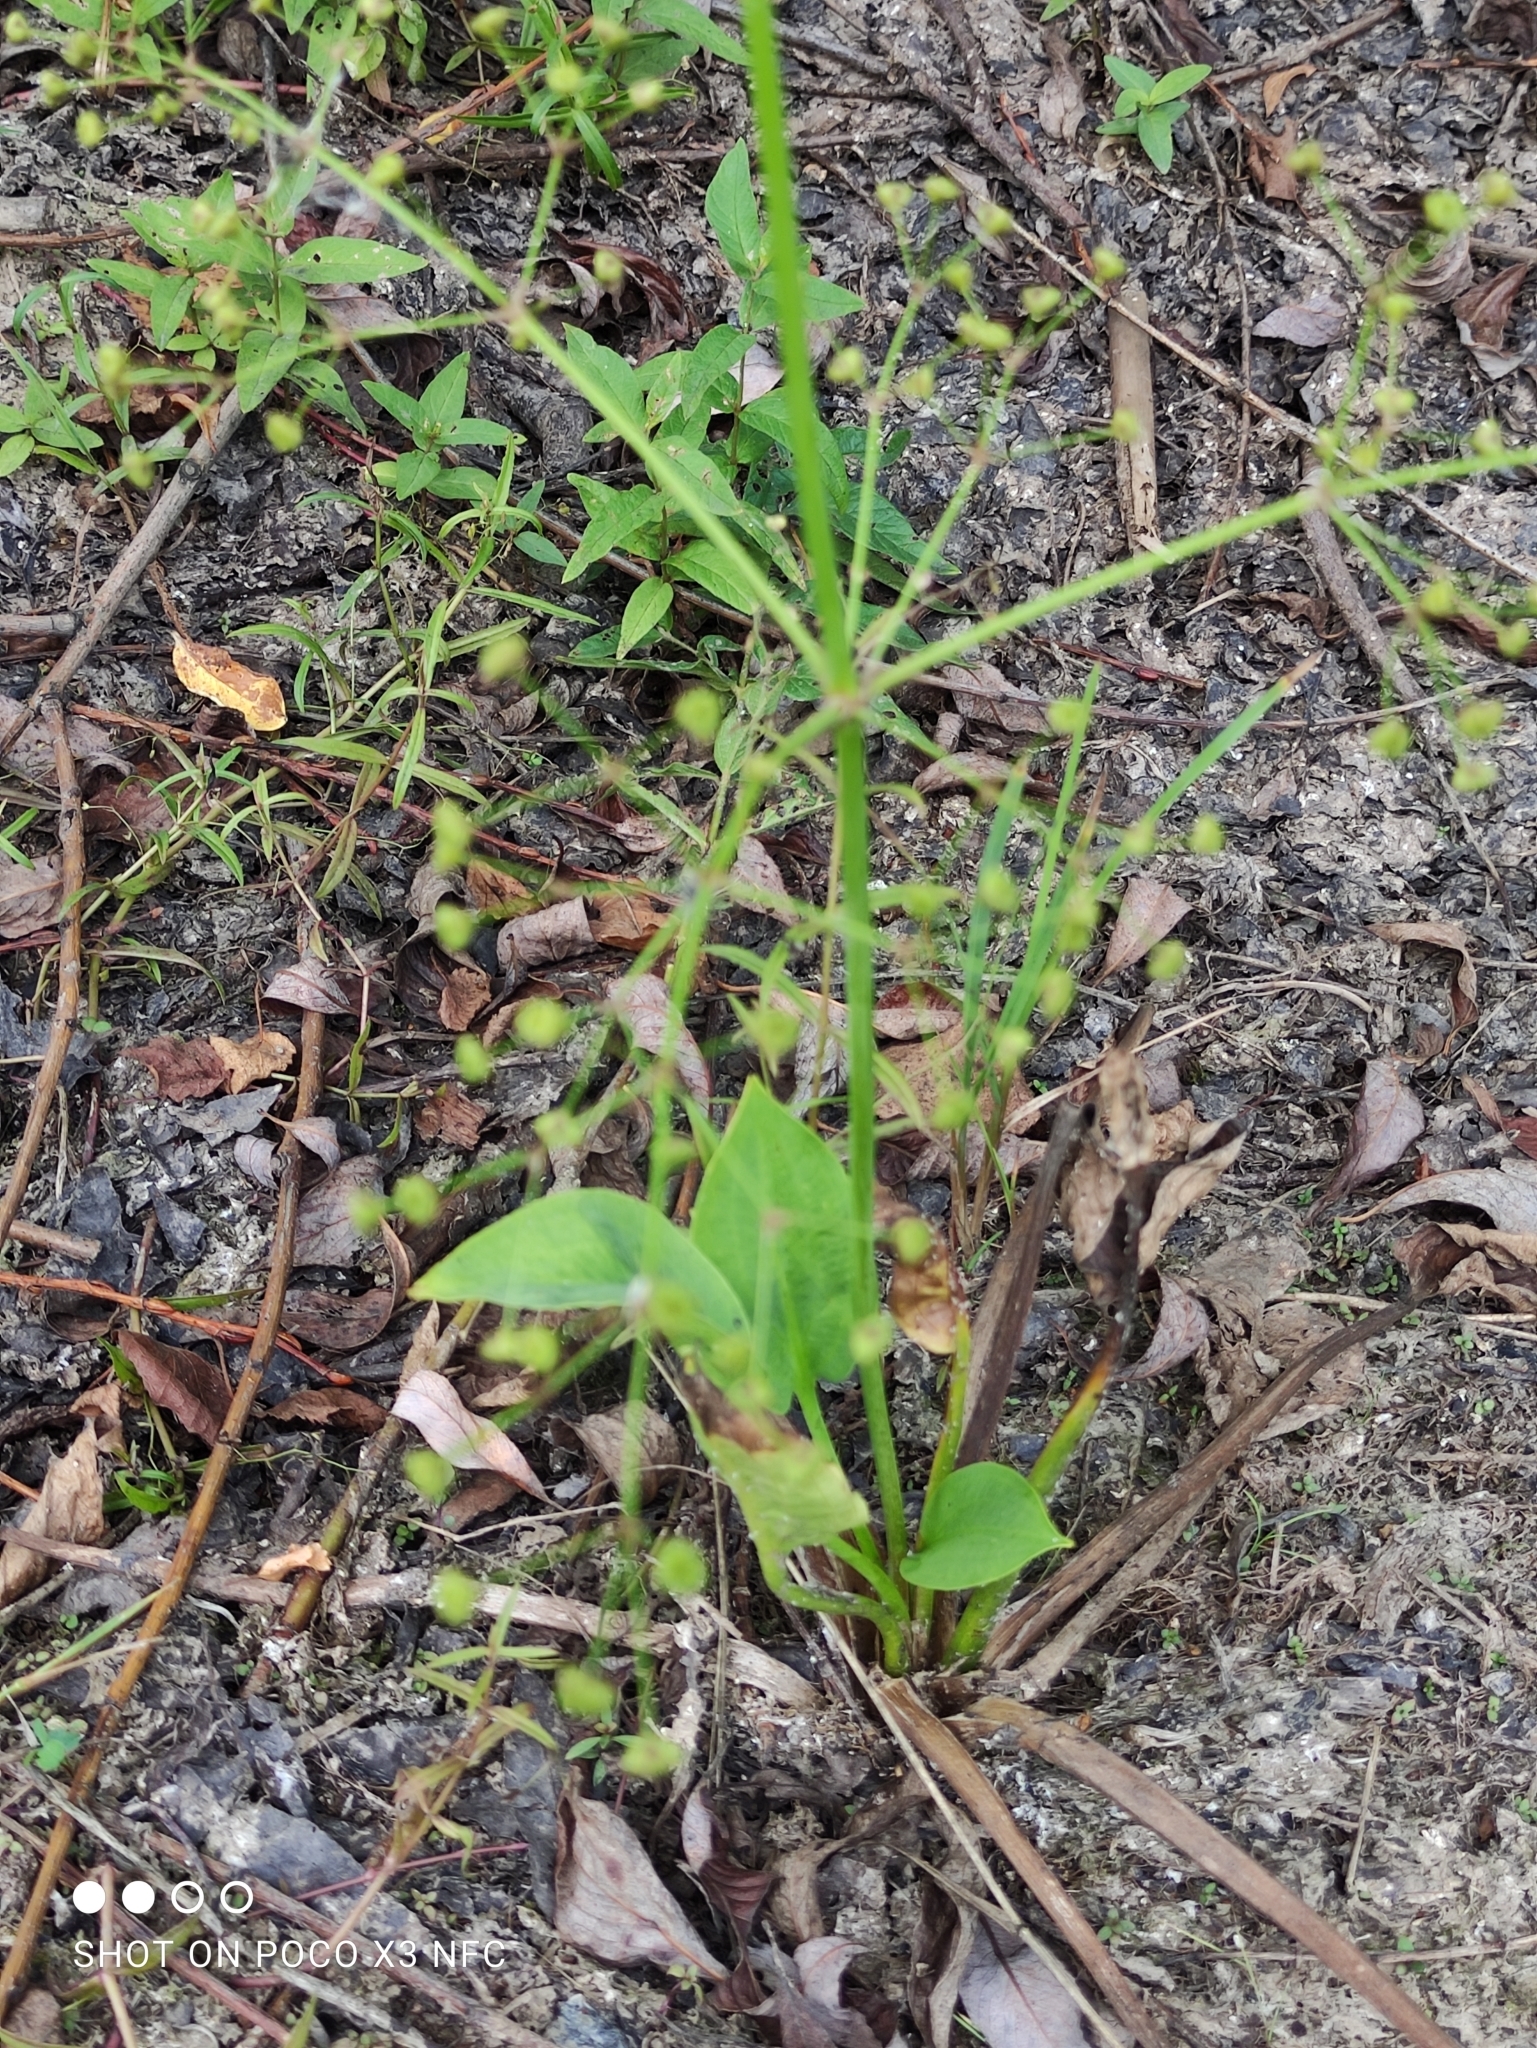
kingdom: Plantae
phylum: Tracheophyta
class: Liliopsida
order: Alismatales
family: Alismataceae
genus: Alisma
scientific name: Alisma plantago-aquatica
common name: Water-plantain
